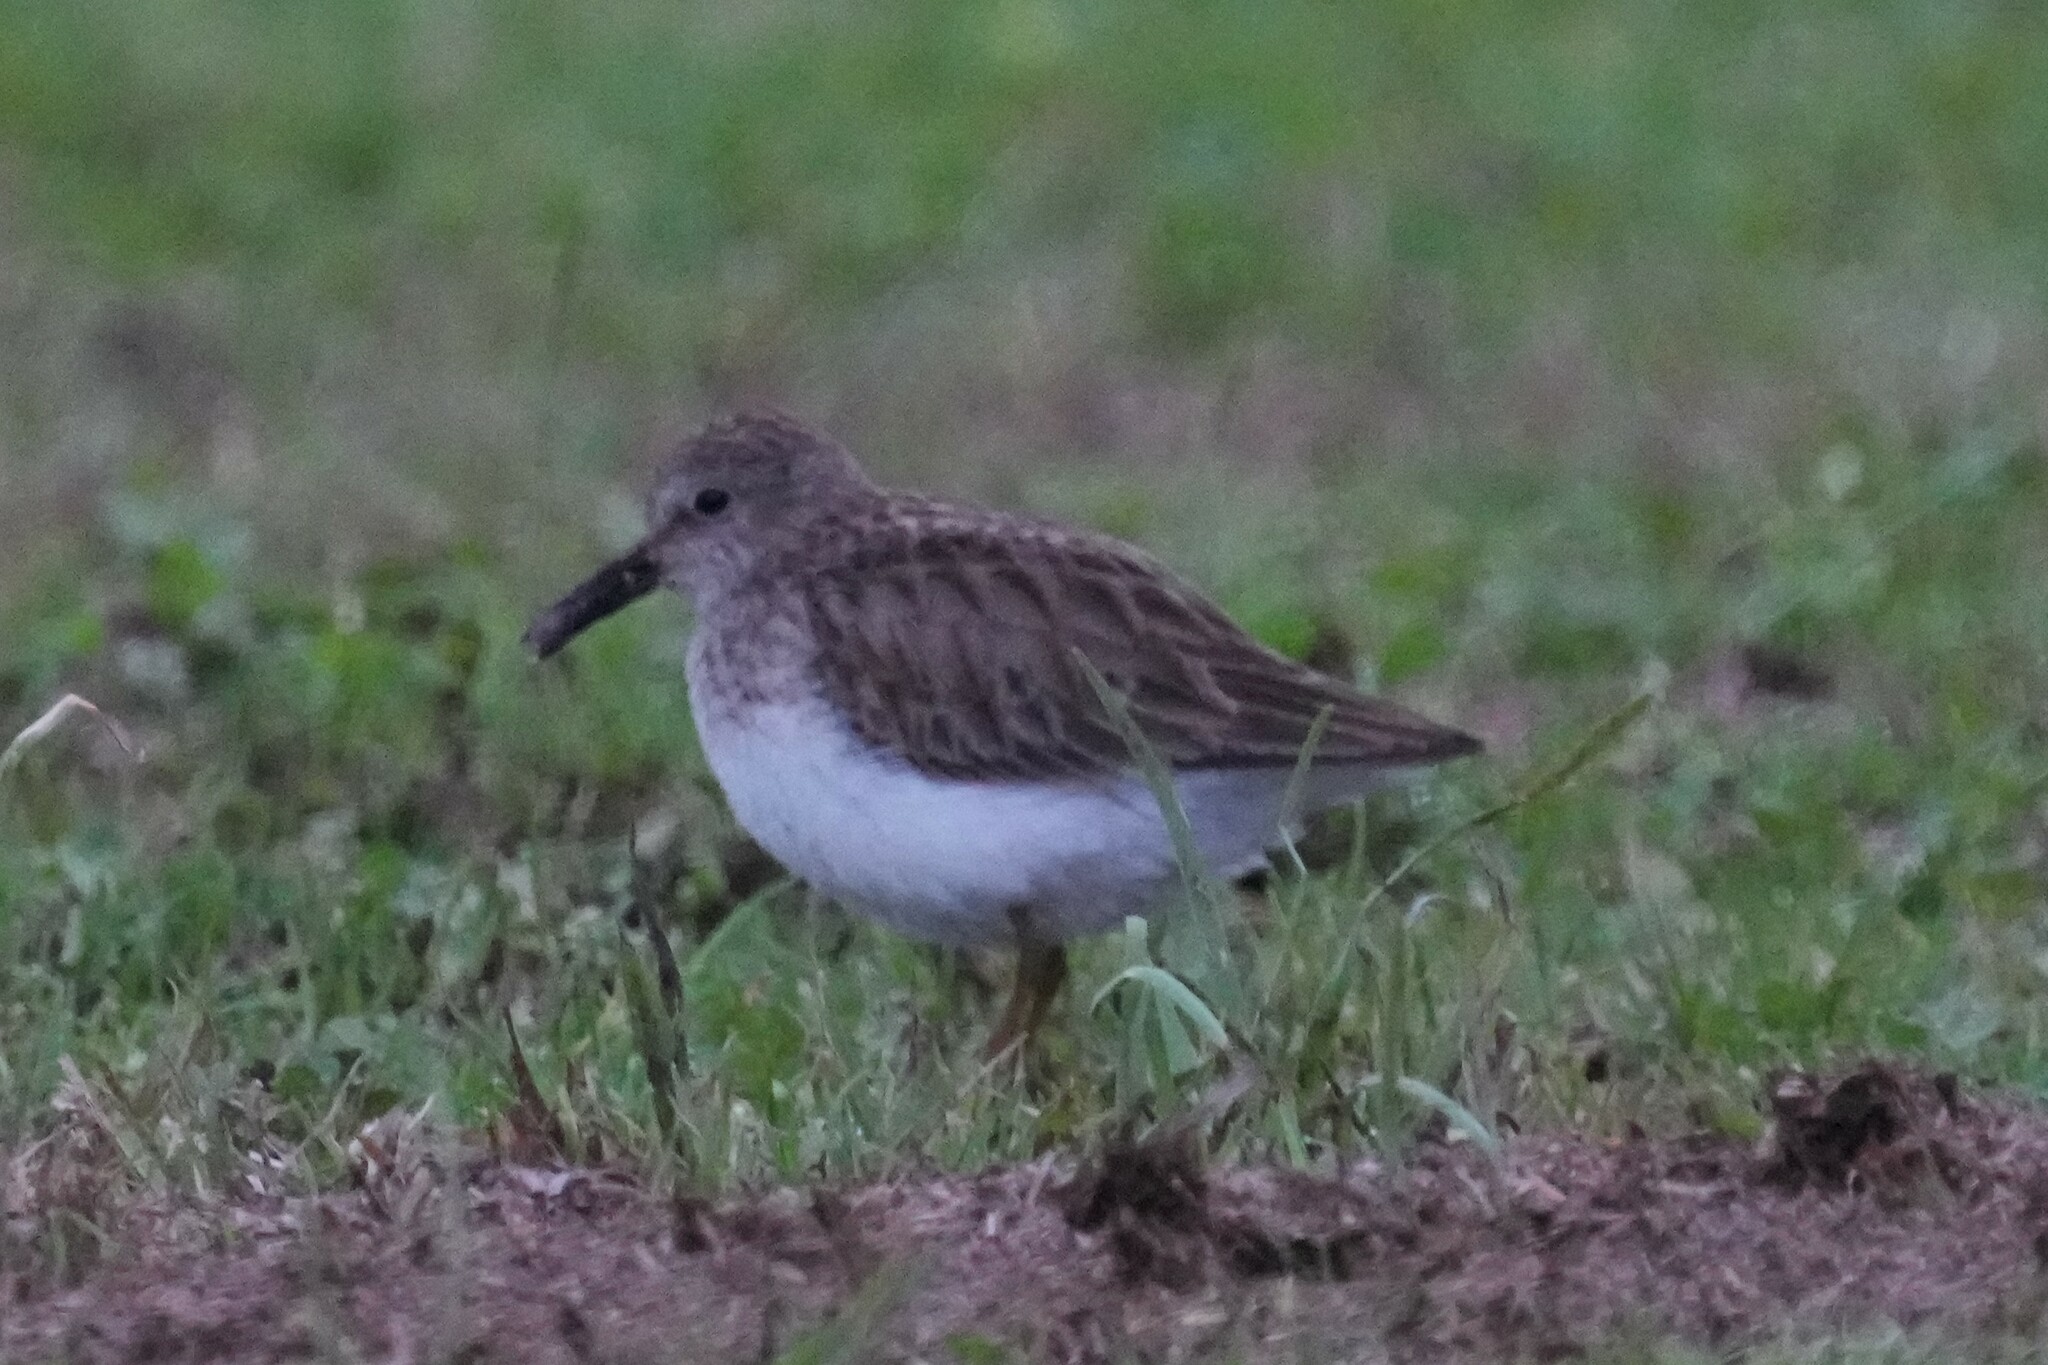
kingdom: Animalia
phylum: Chordata
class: Aves
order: Charadriiformes
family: Scolopacidae
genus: Calidris
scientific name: Calidris minutilla
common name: Least sandpiper
